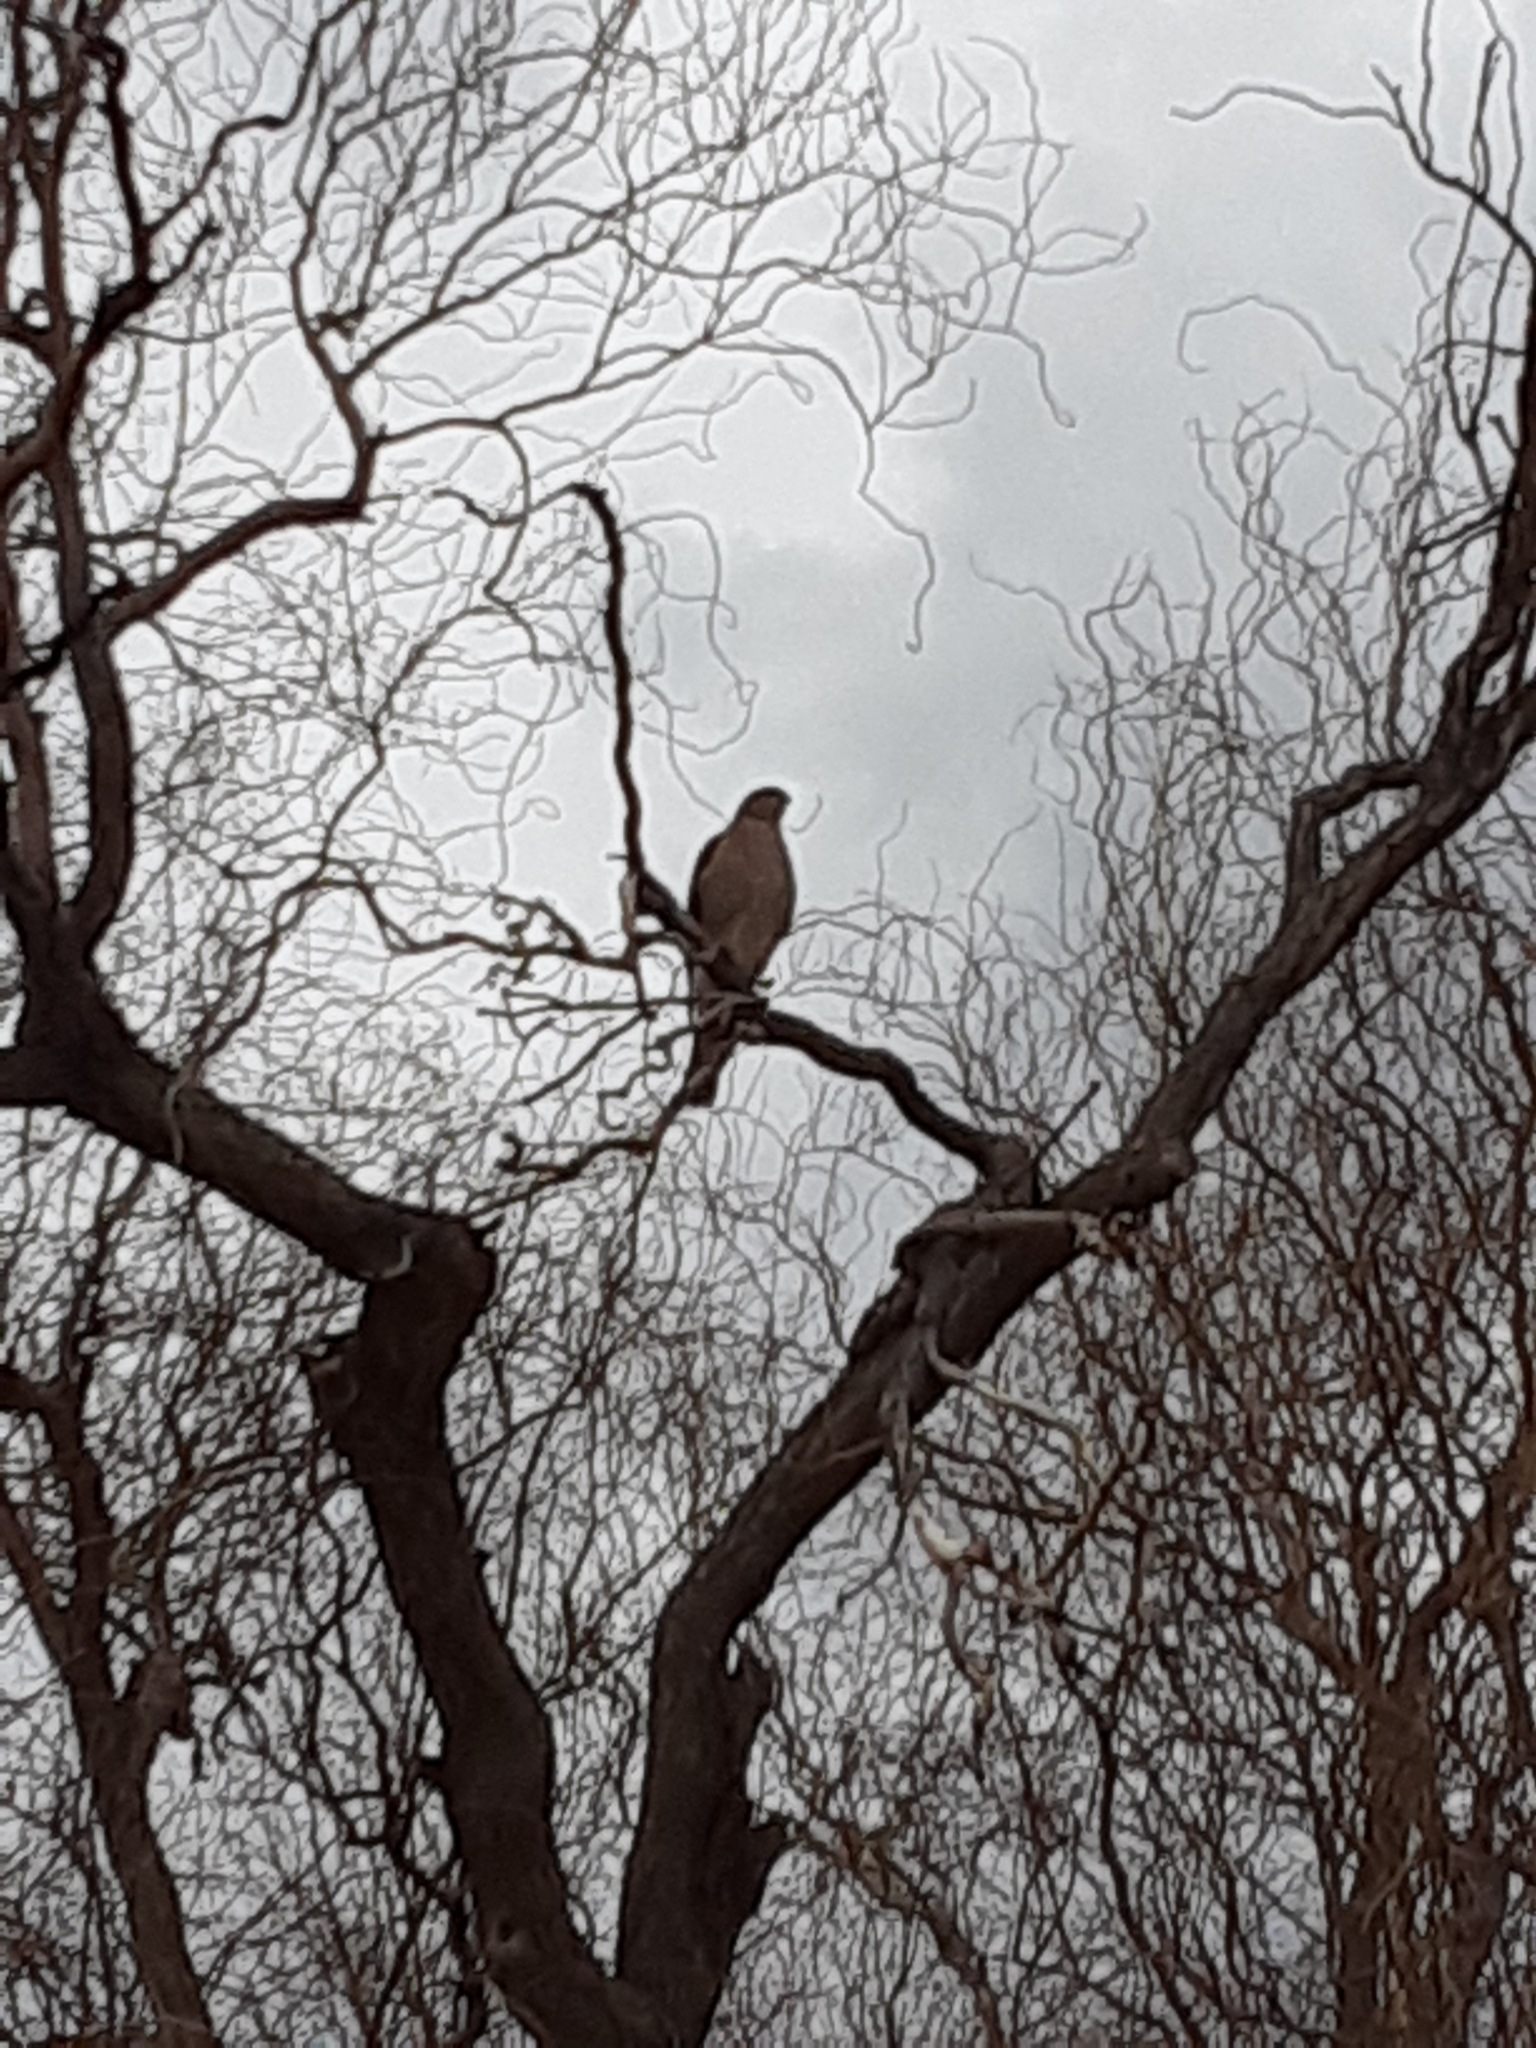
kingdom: Animalia
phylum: Chordata
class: Aves
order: Accipitriformes
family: Accipitridae
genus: Accipiter
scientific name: Accipiter cooperii
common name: Cooper's hawk
